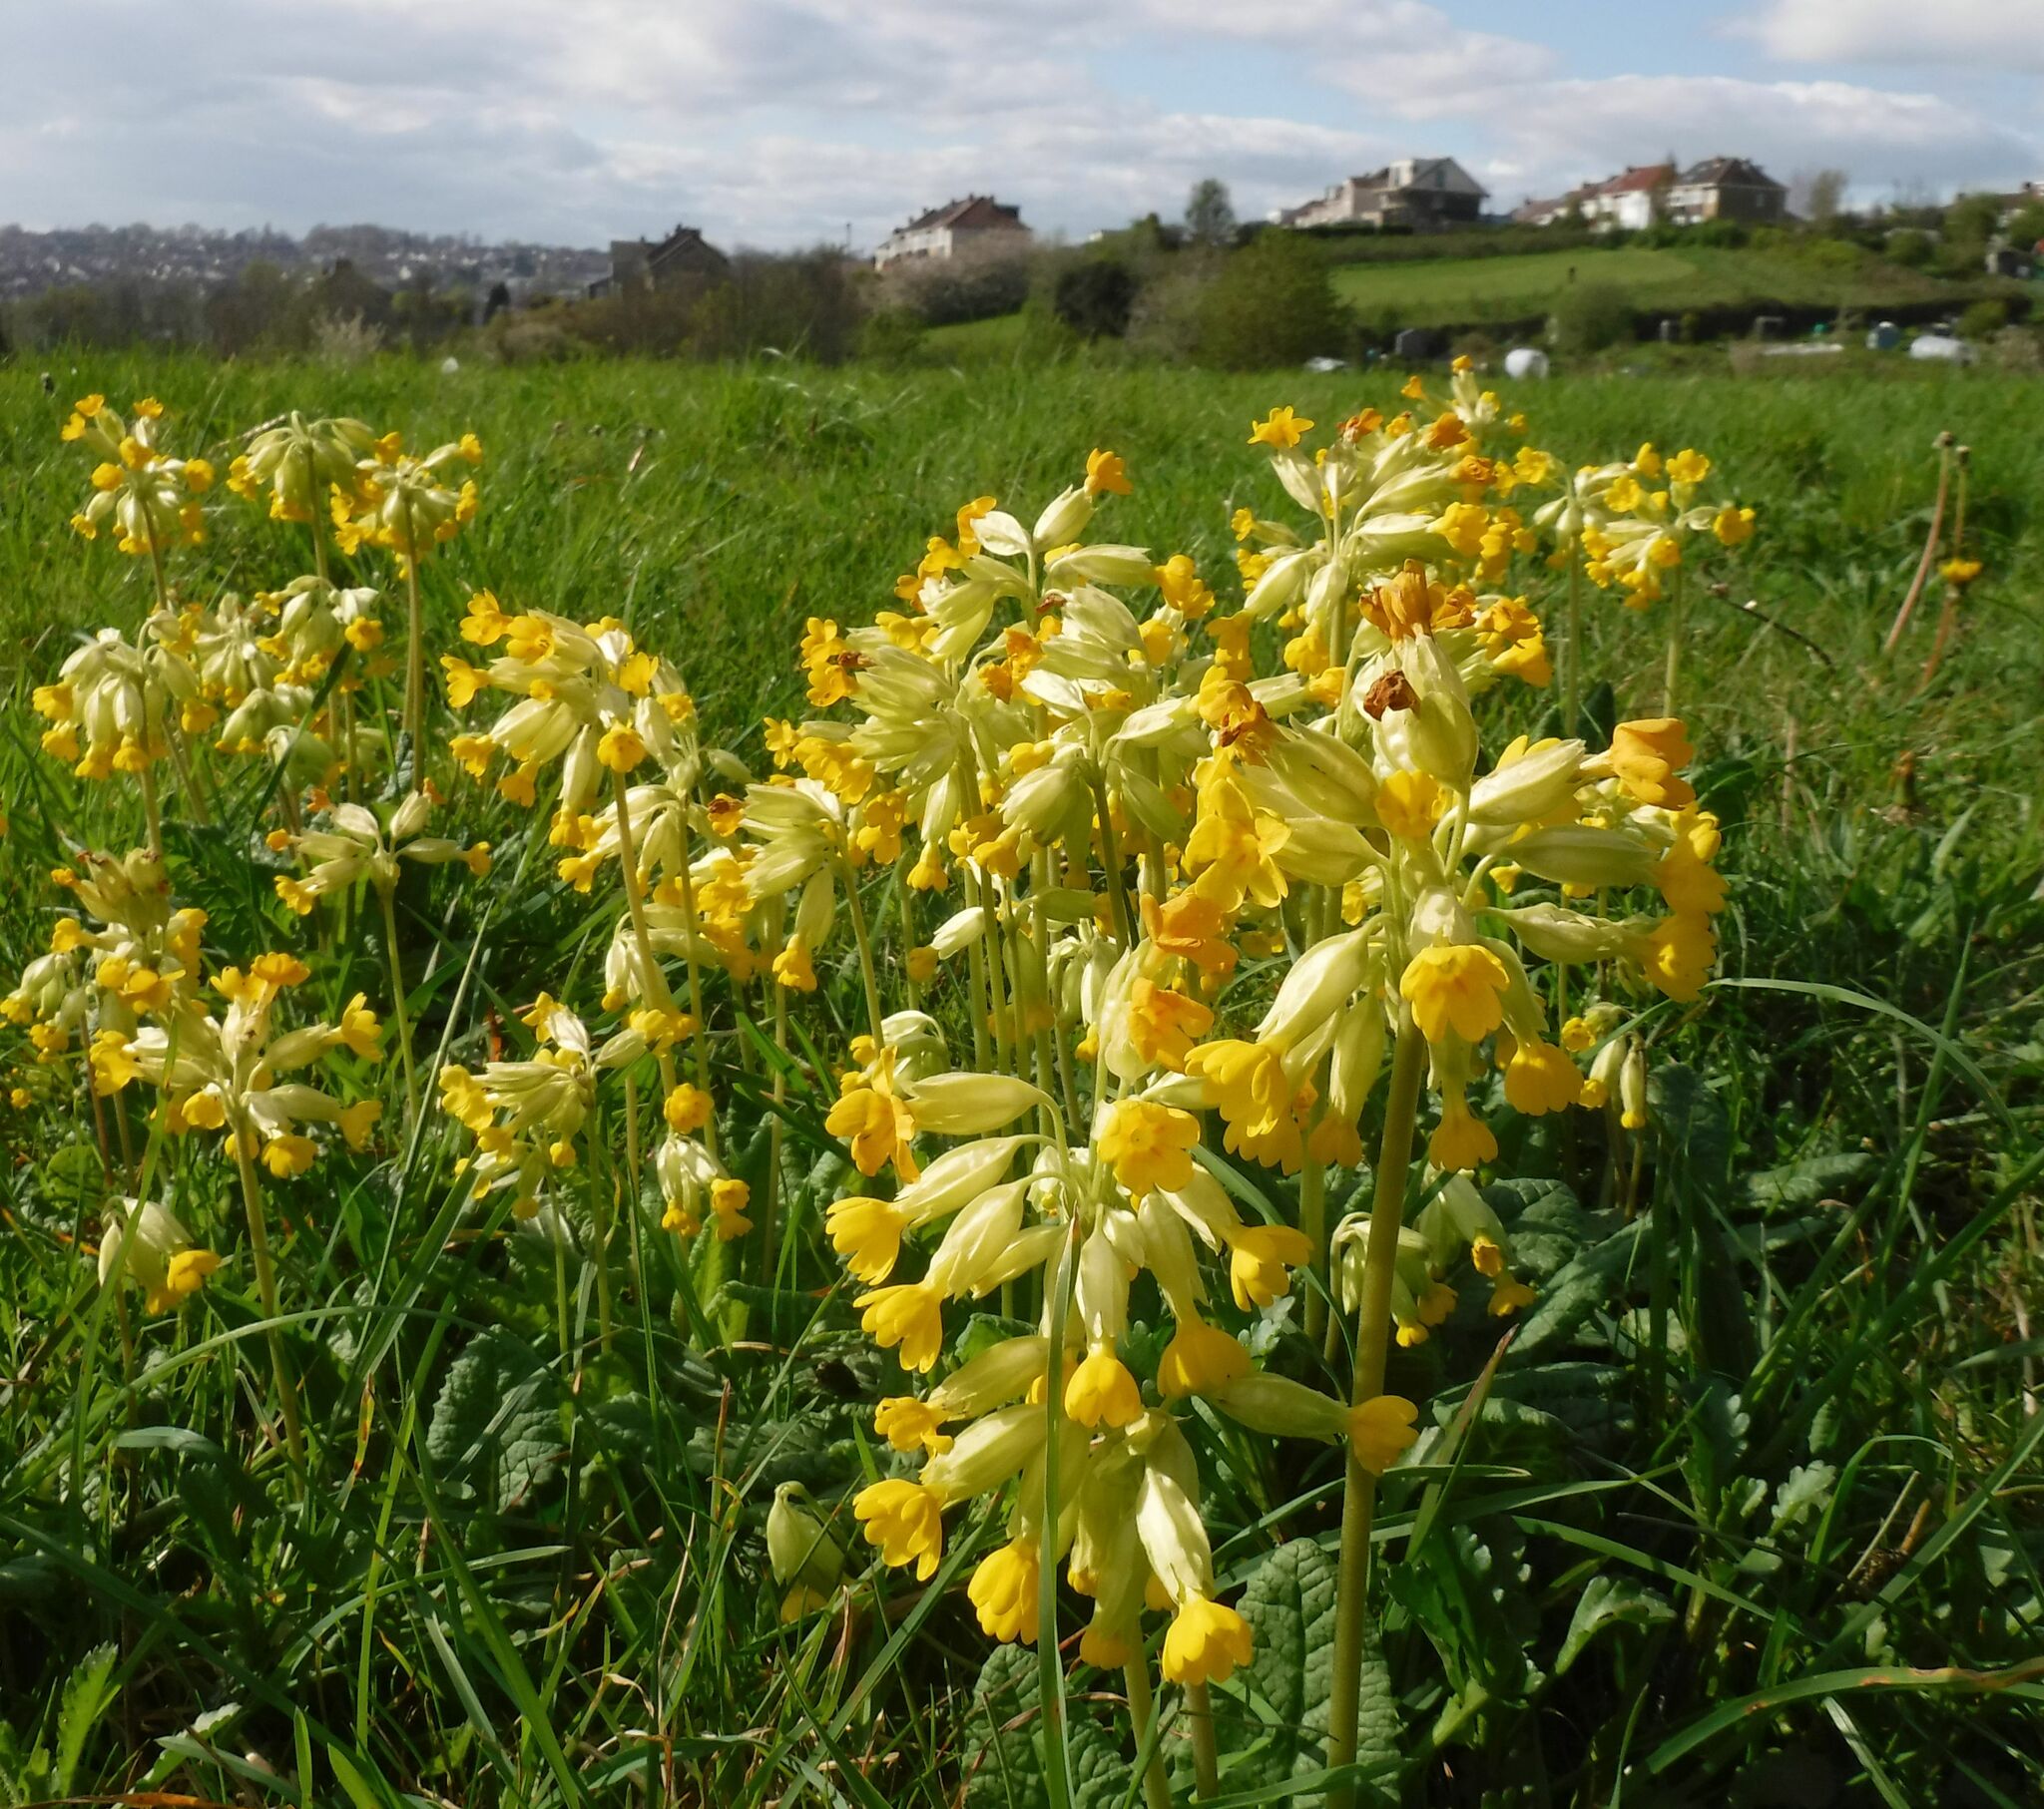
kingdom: Plantae
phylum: Tracheophyta
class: Magnoliopsida
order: Ericales
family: Primulaceae
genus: Primula
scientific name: Primula veris
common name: Cowslip
